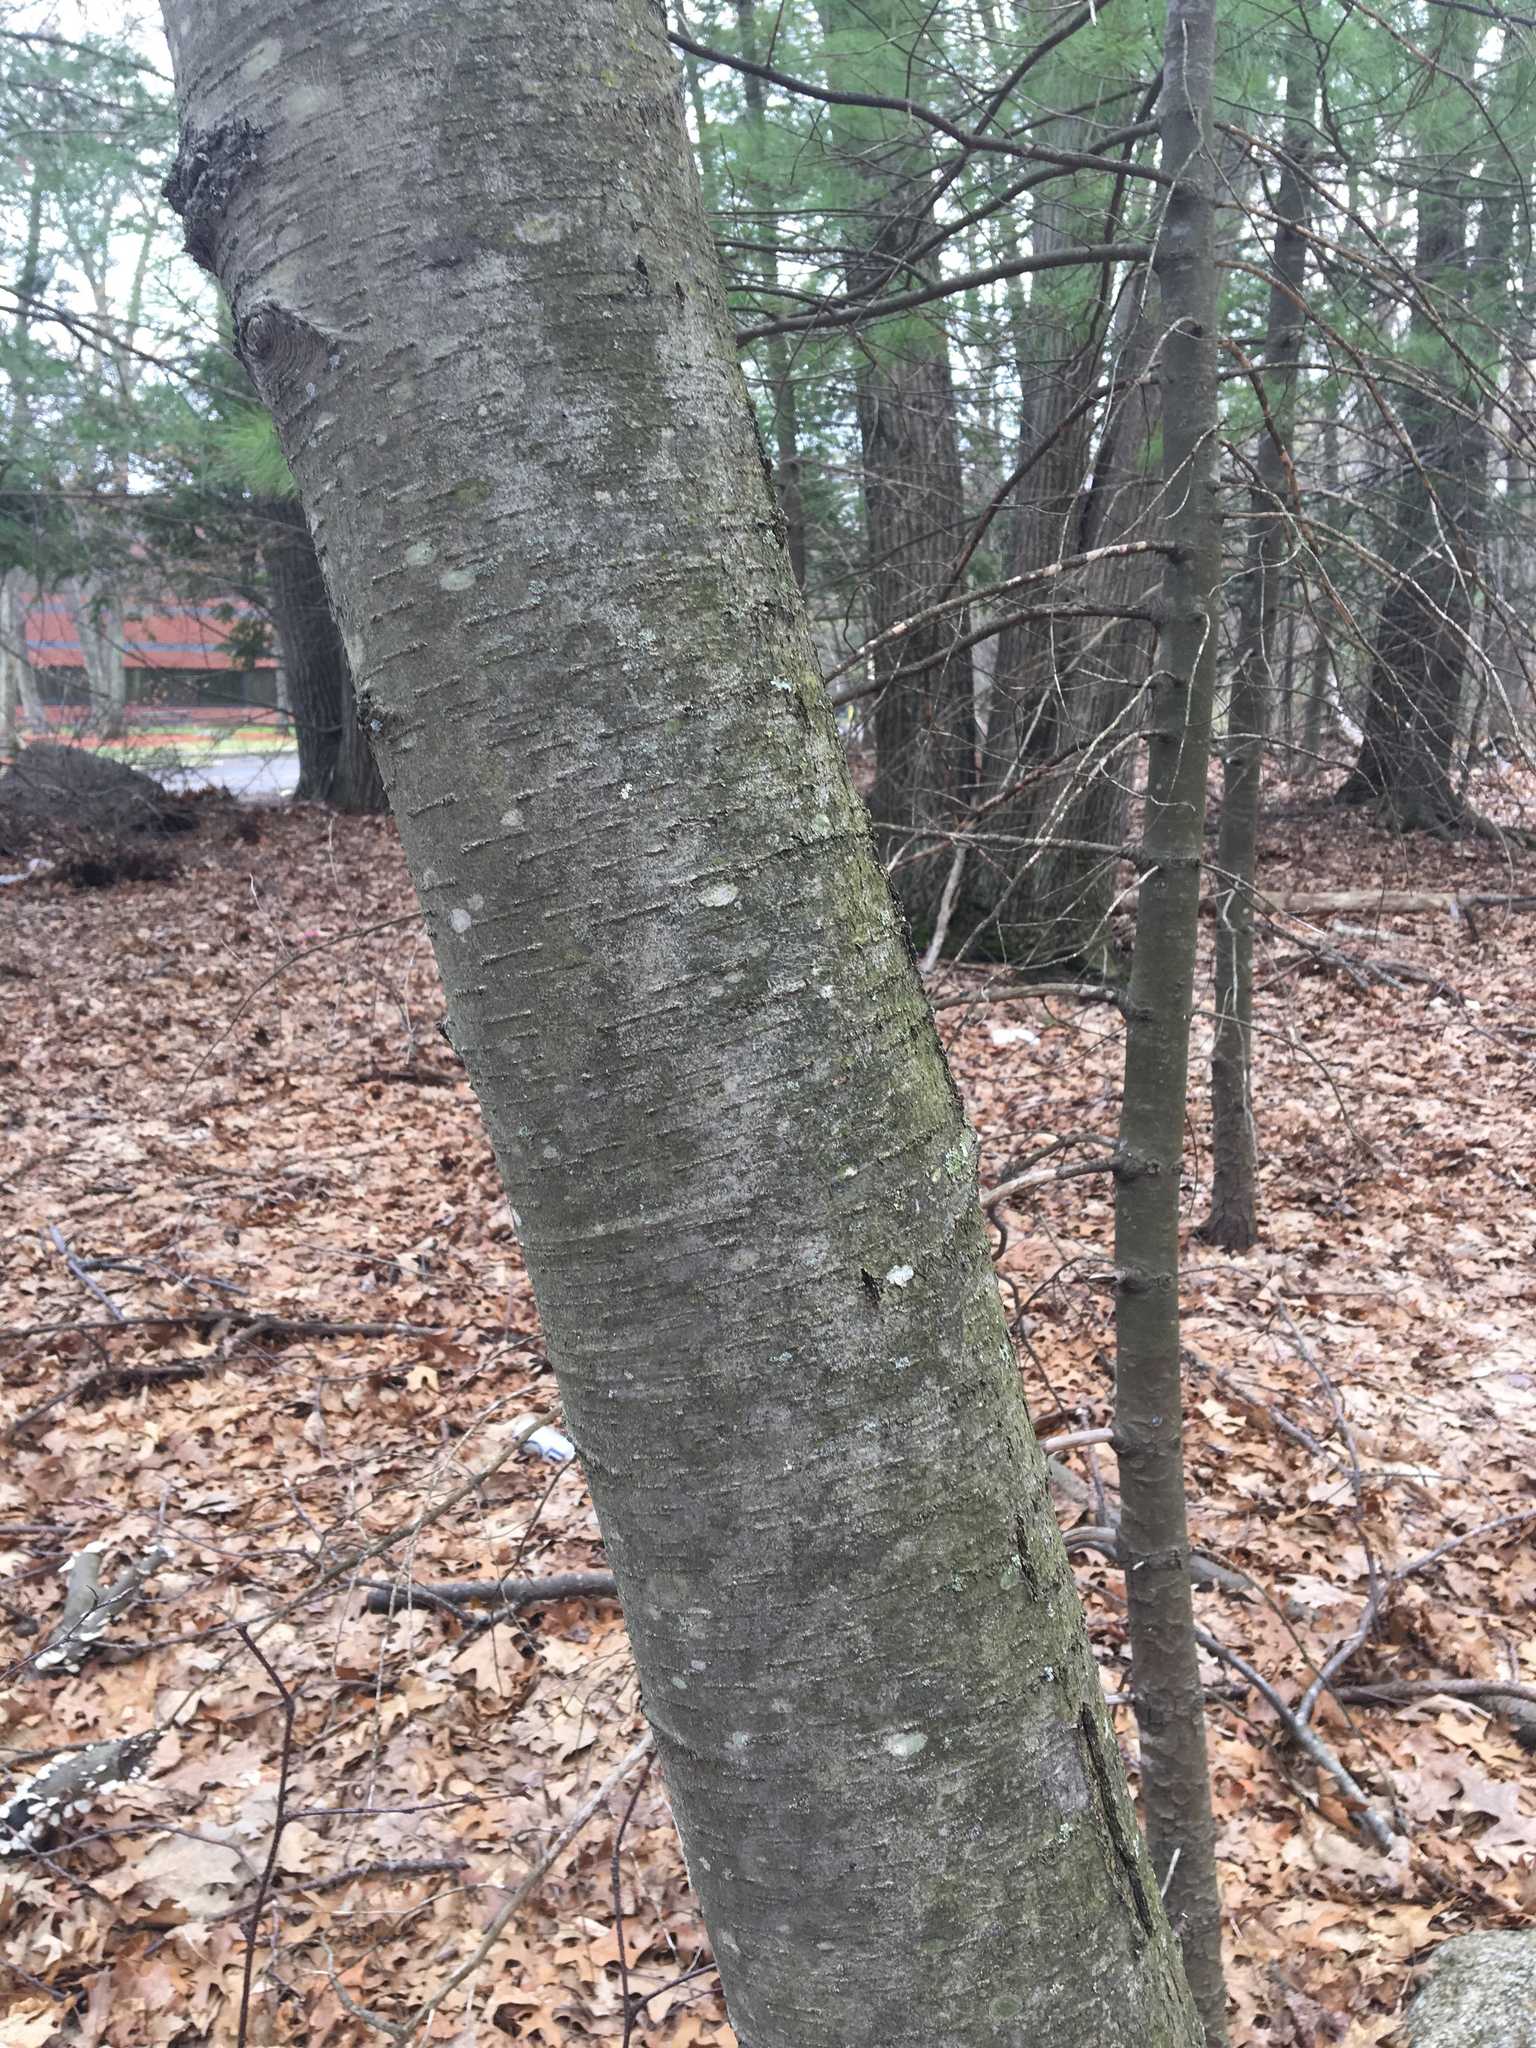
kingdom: Plantae
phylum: Tracheophyta
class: Magnoliopsida
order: Fagales
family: Betulaceae
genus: Betula
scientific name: Betula lenta
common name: Black birch
